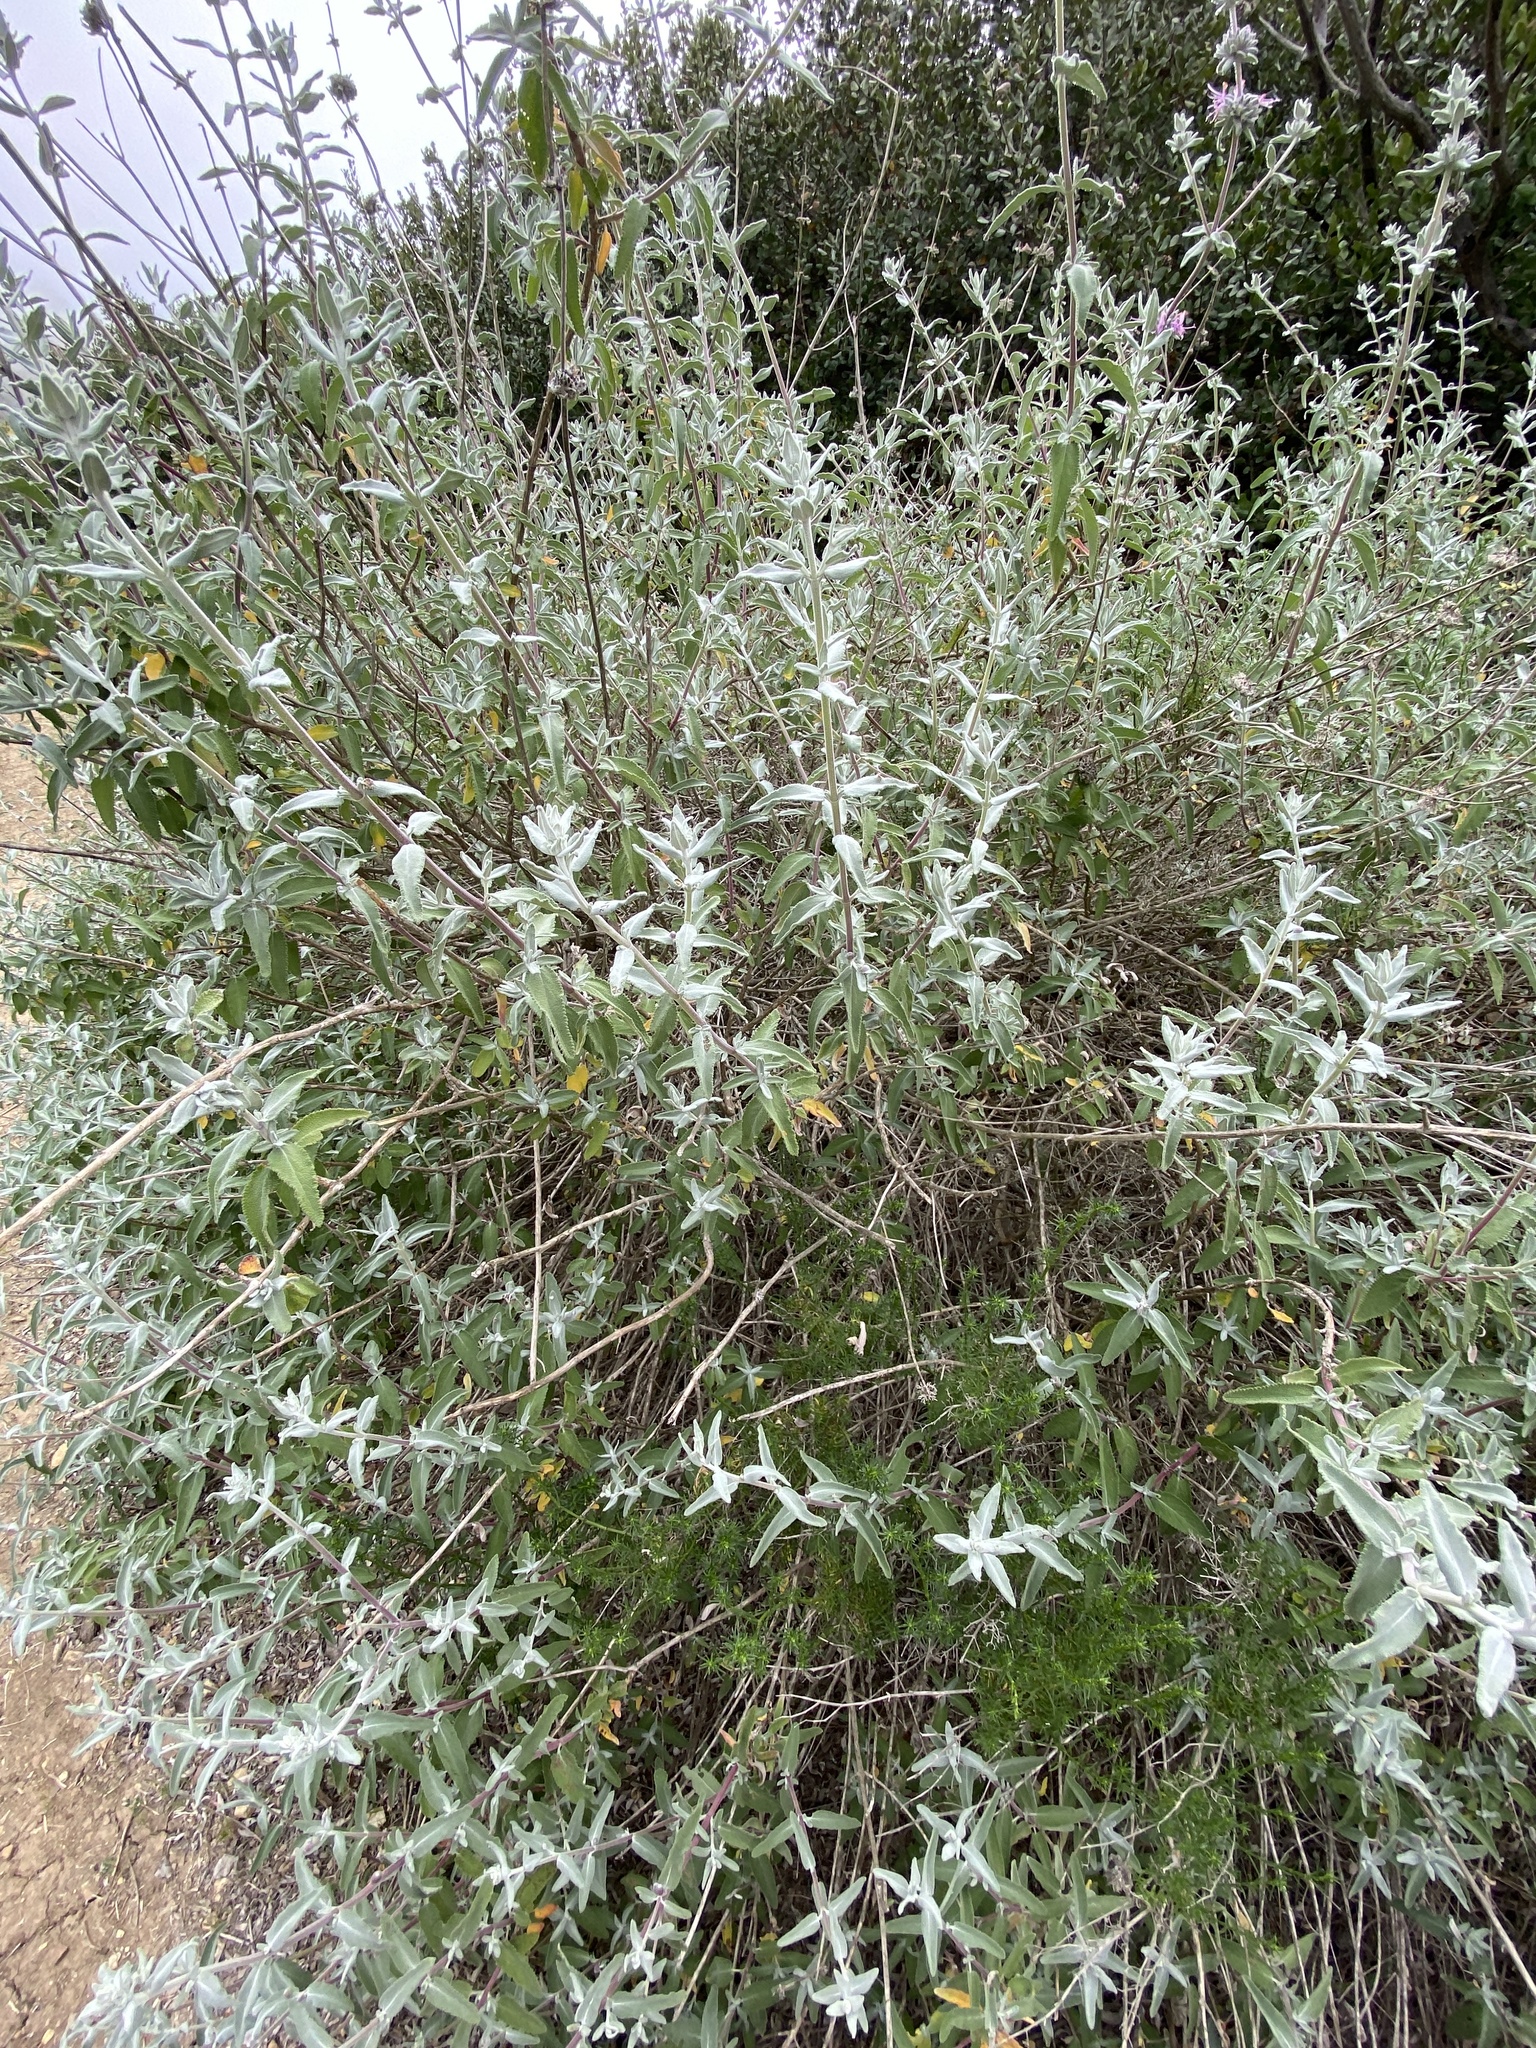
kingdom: Plantae
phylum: Tracheophyta
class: Magnoliopsida
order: Lamiales
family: Lamiaceae
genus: Salvia
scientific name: Salvia leucophylla
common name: Purple sage
